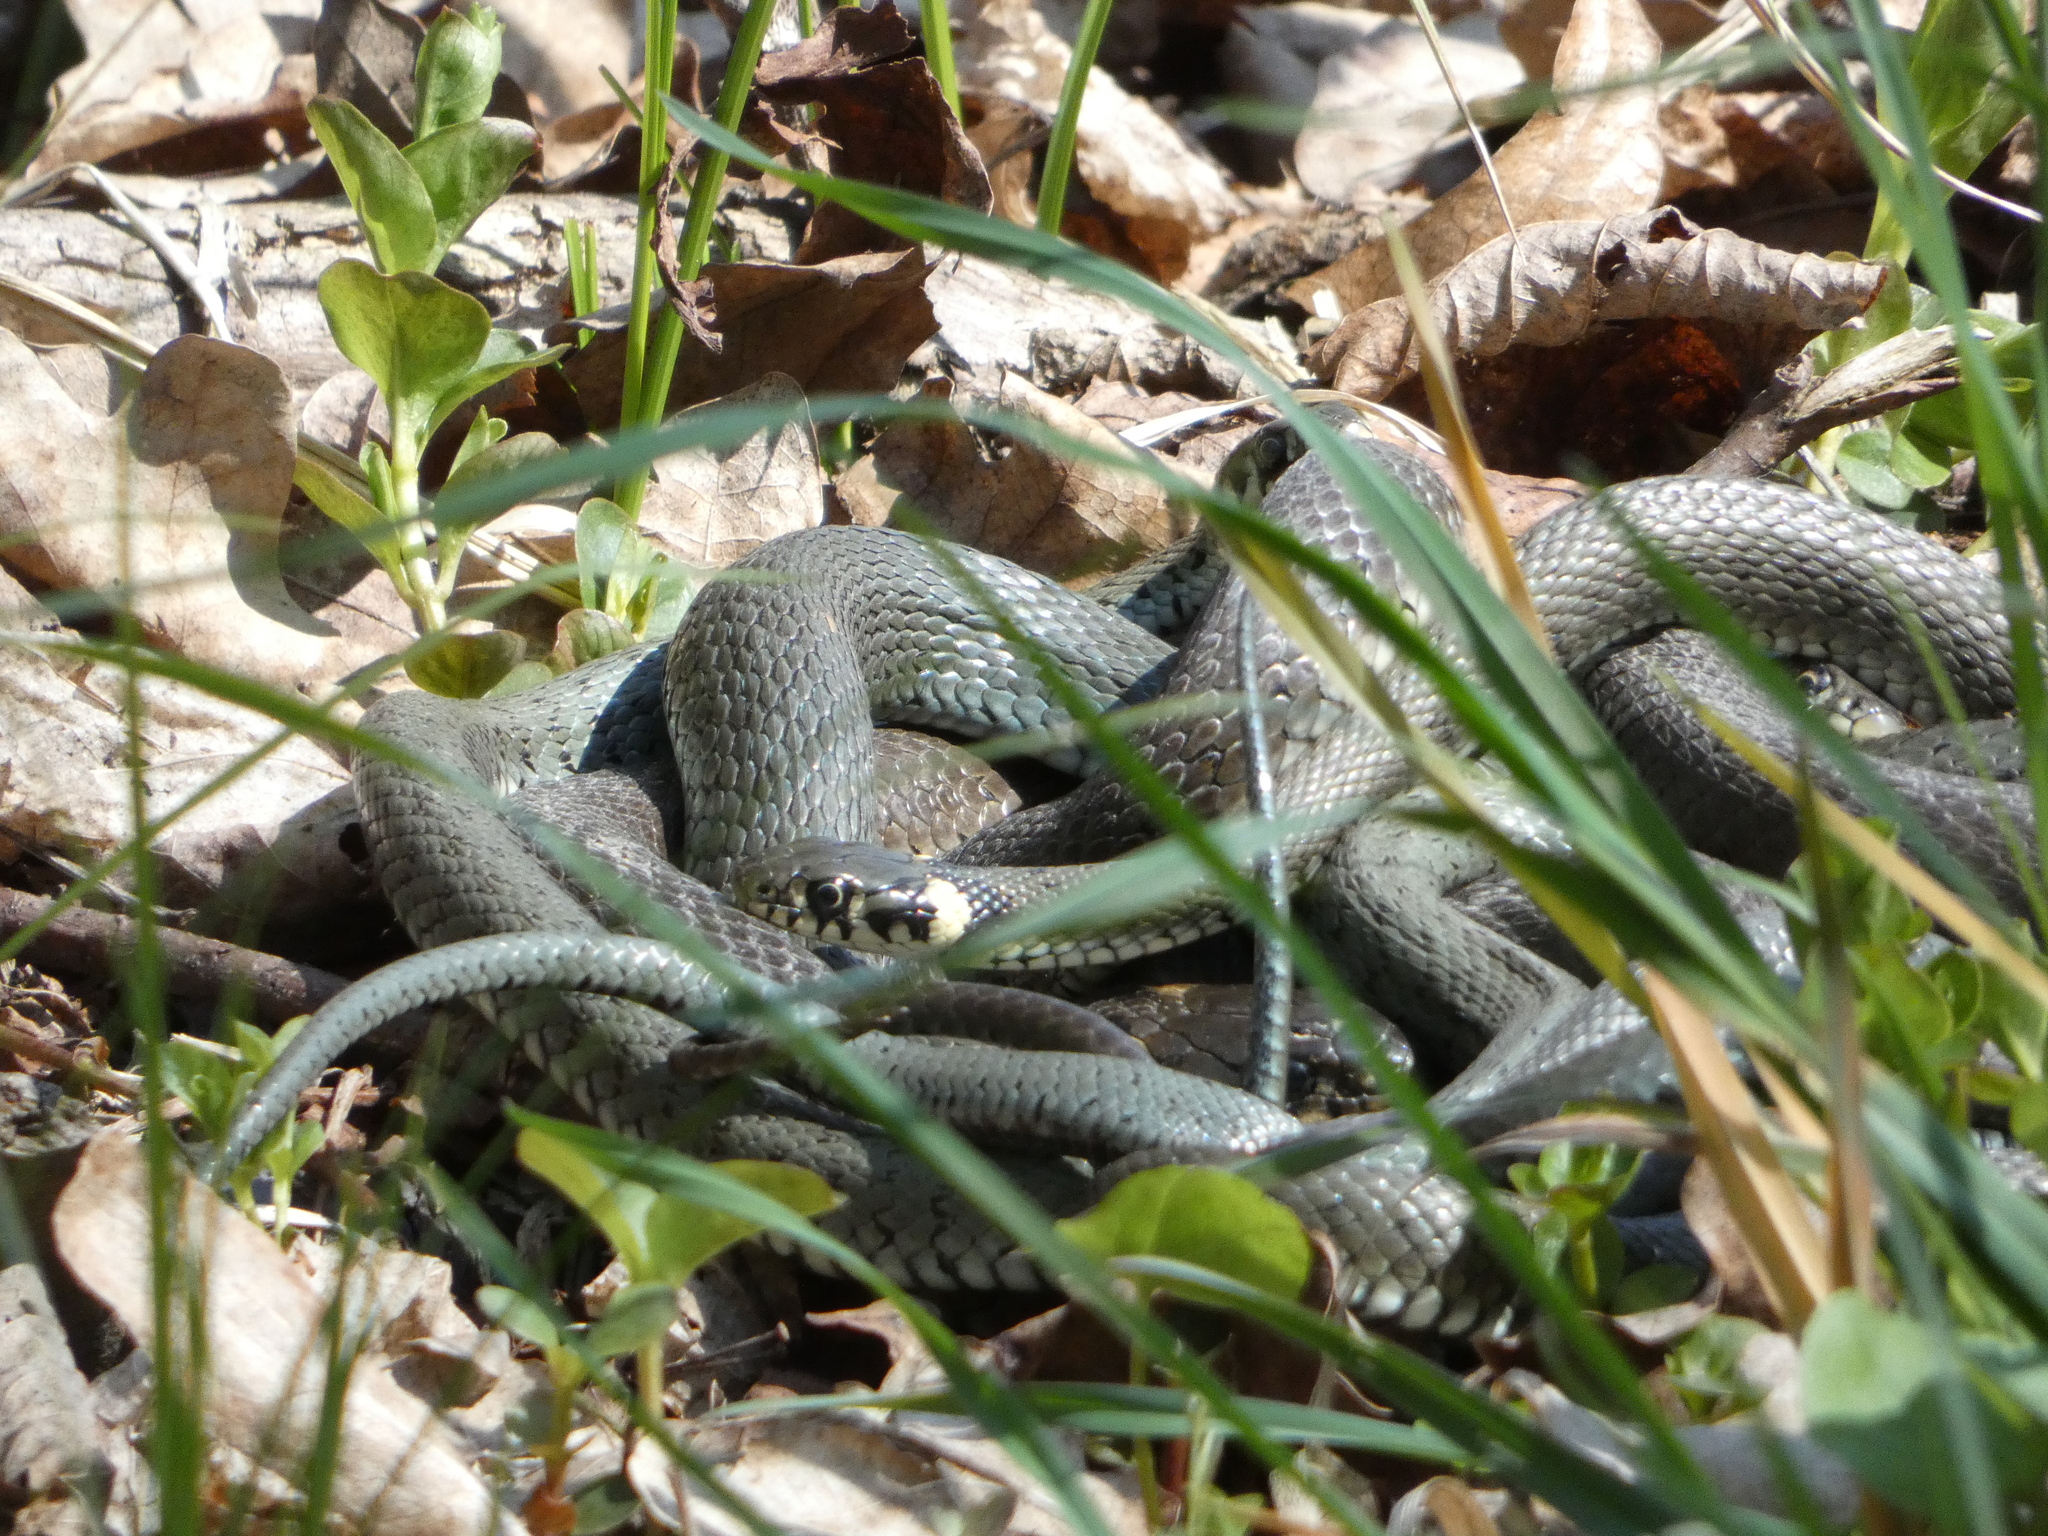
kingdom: Animalia
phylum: Chordata
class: Squamata
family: Colubridae
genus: Natrix
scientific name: Natrix natrix
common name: Grass snake
